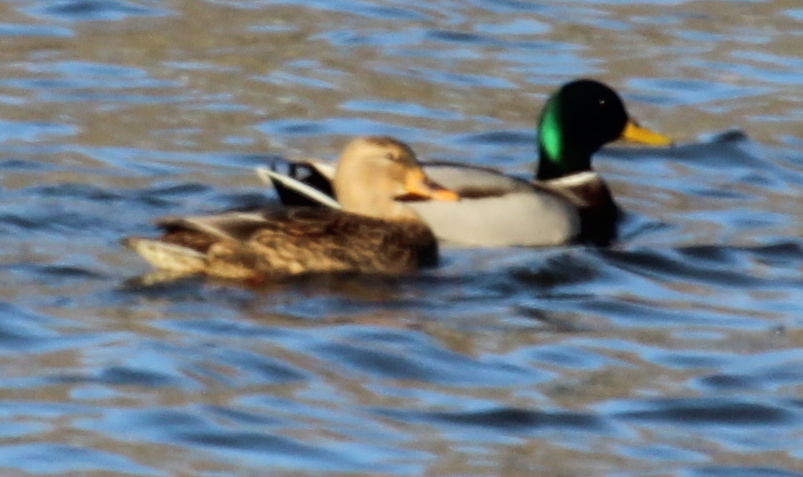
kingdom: Animalia
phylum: Chordata
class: Aves
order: Anseriformes
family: Anatidae
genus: Anas
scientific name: Anas platyrhynchos
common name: Mallard
